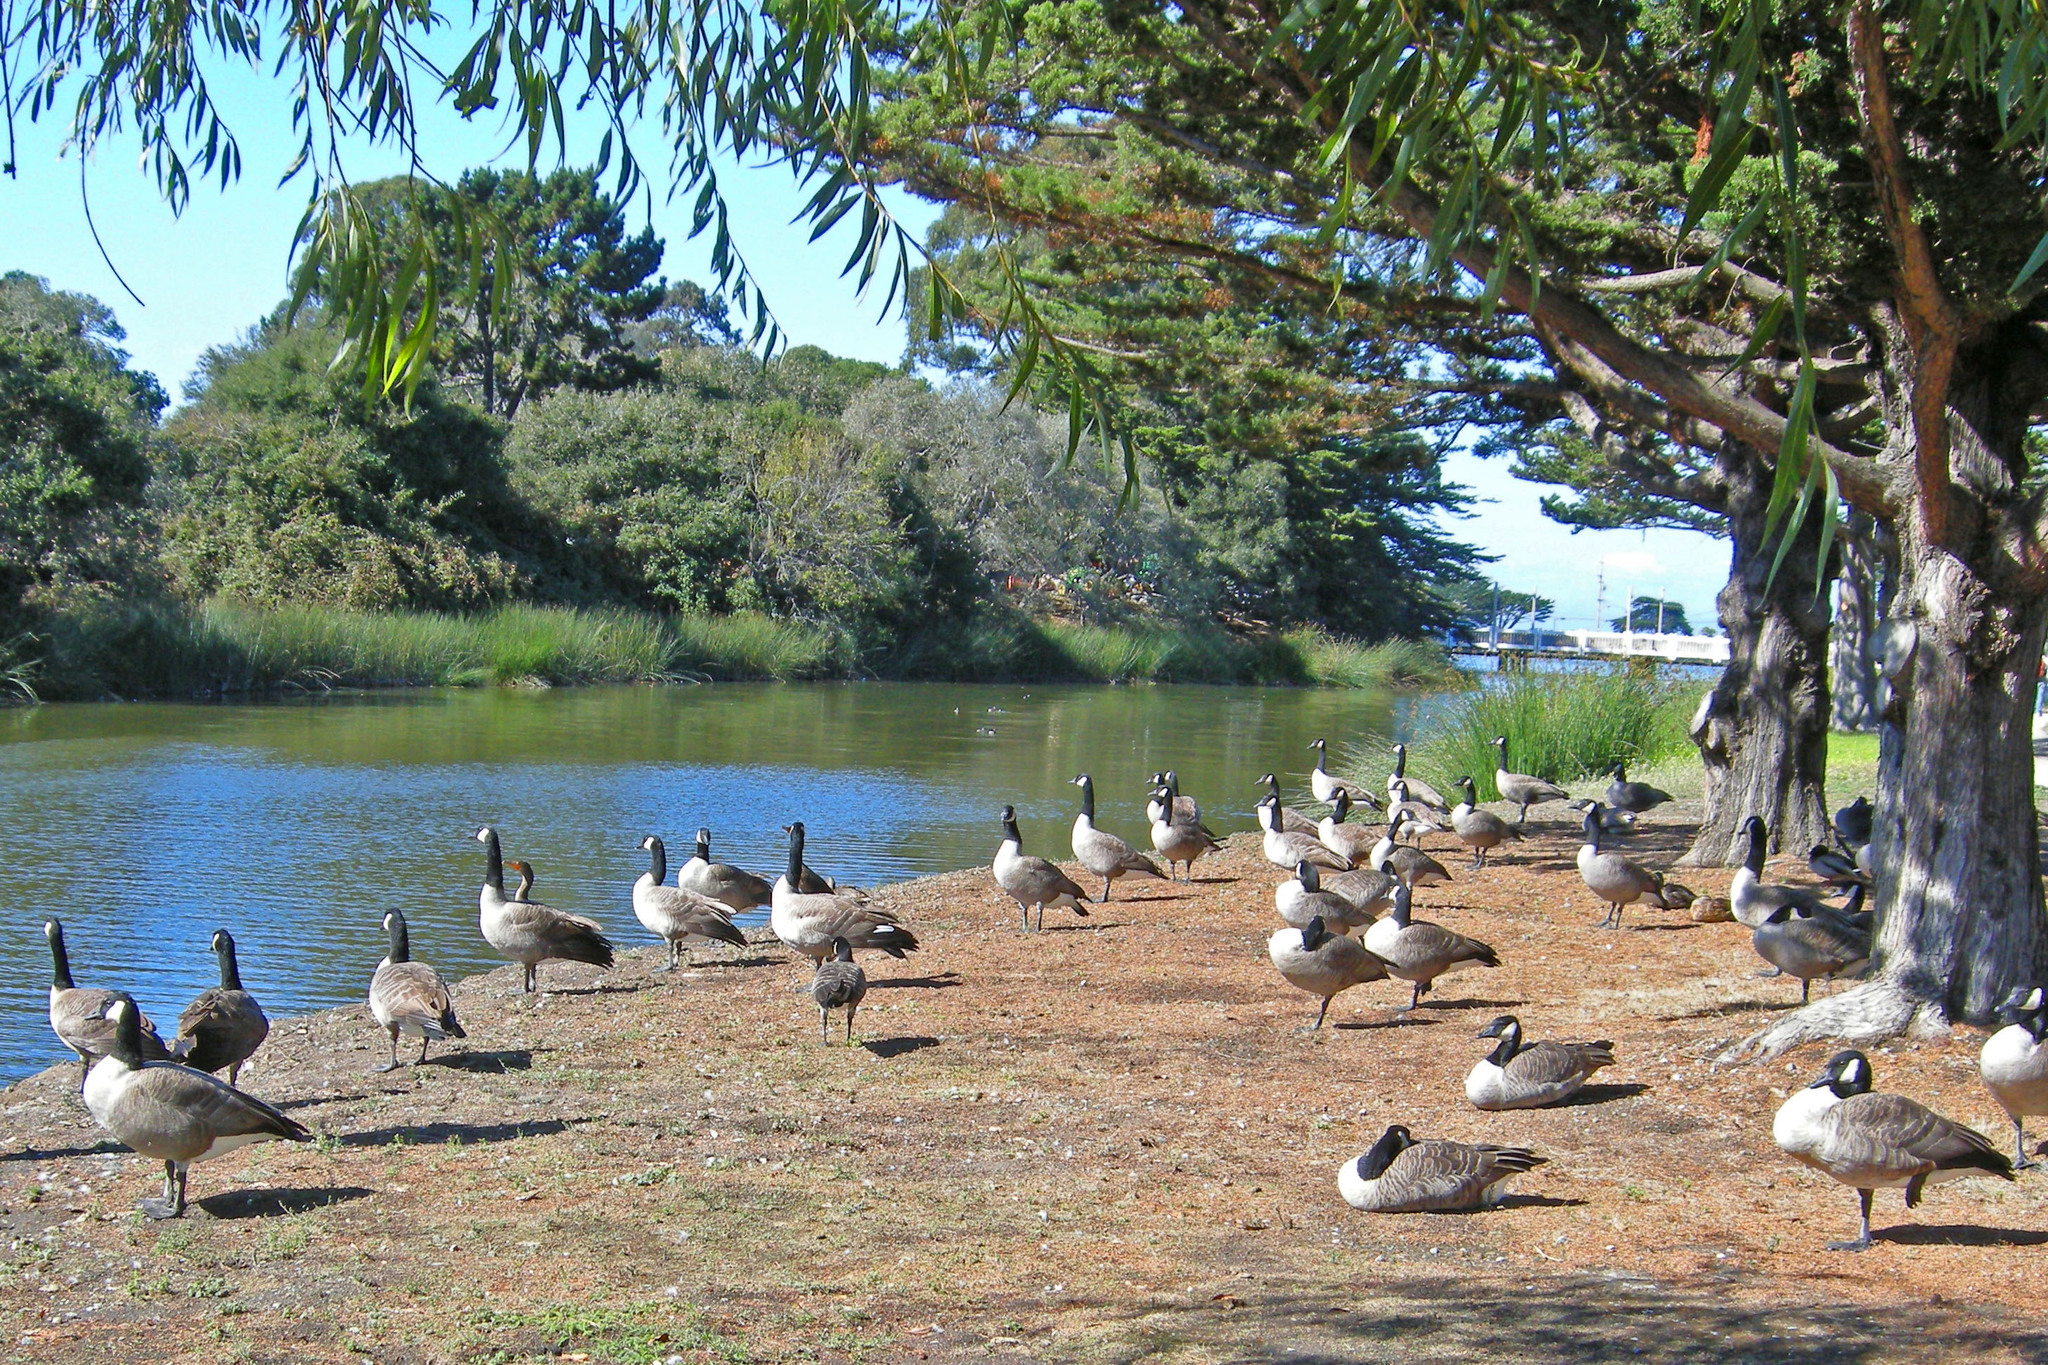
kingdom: Animalia
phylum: Chordata
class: Aves
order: Anseriformes
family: Anatidae
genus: Branta
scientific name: Branta hutchinsii
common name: Cackling goose
